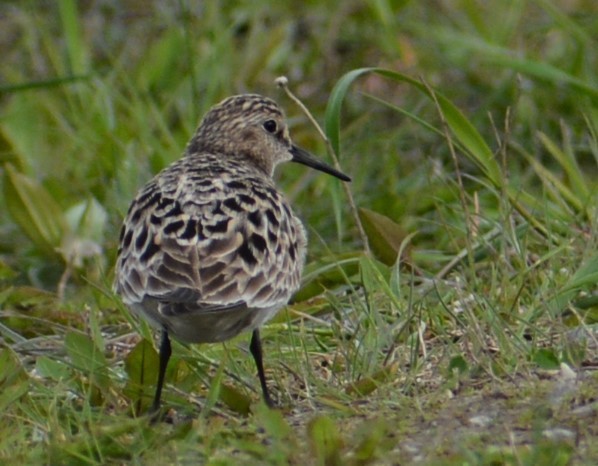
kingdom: Animalia
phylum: Chordata
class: Aves
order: Charadriiformes
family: Scolopacidae
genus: Calidris
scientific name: Calidris bairdii
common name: Baird's sandpiper
